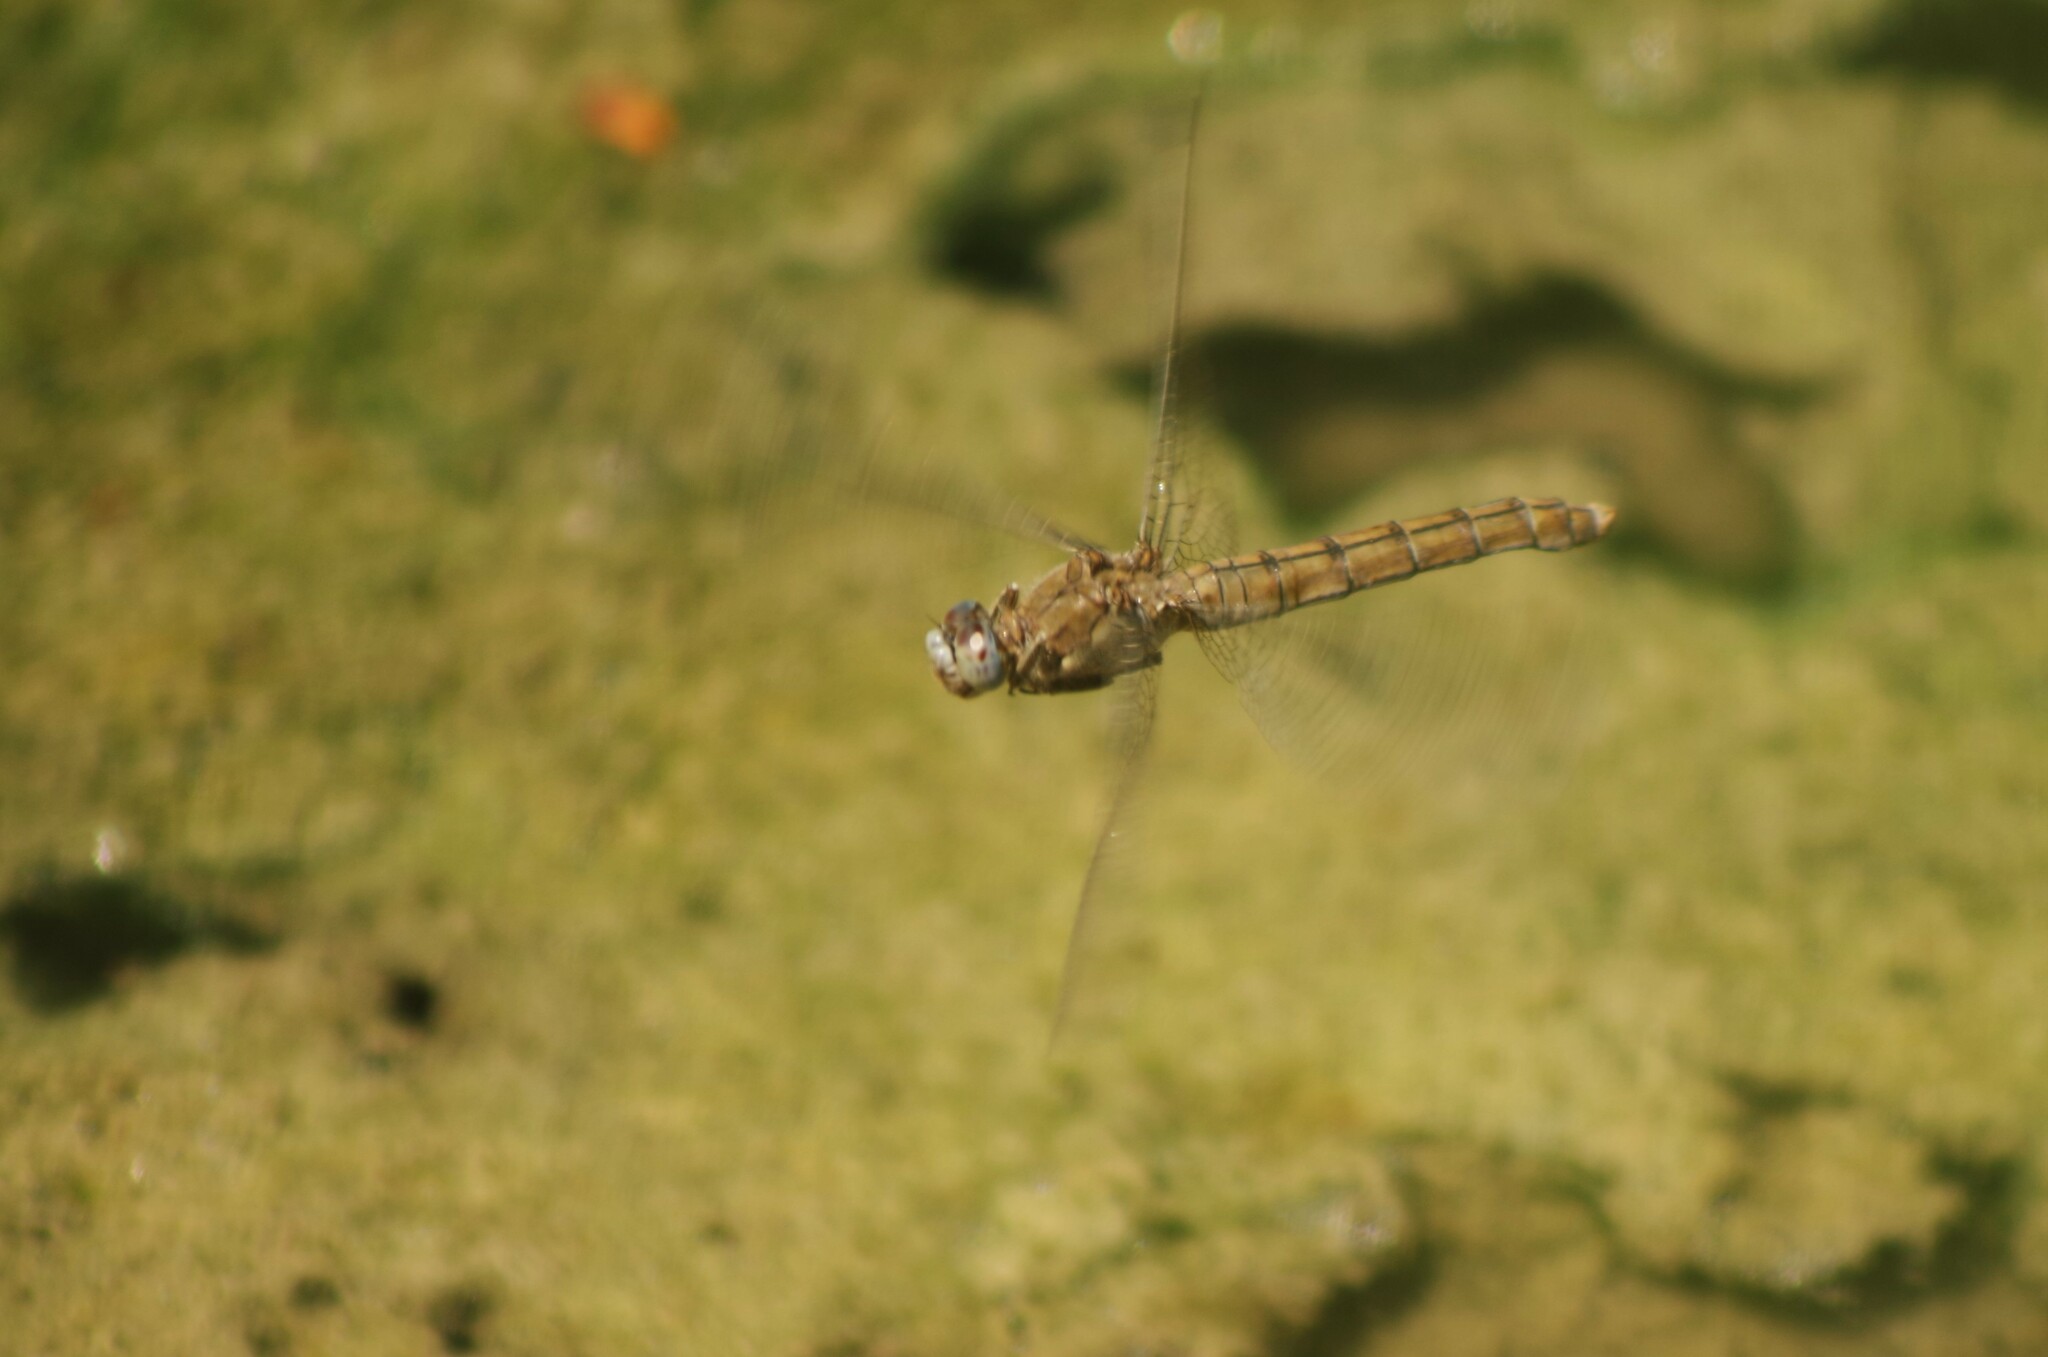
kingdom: Animalia
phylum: Arthropoda
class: Insecta
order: Odonata
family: Libellulidae
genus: Orthetrum
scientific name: Orthetrum brunneum
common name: Southern skimmer
